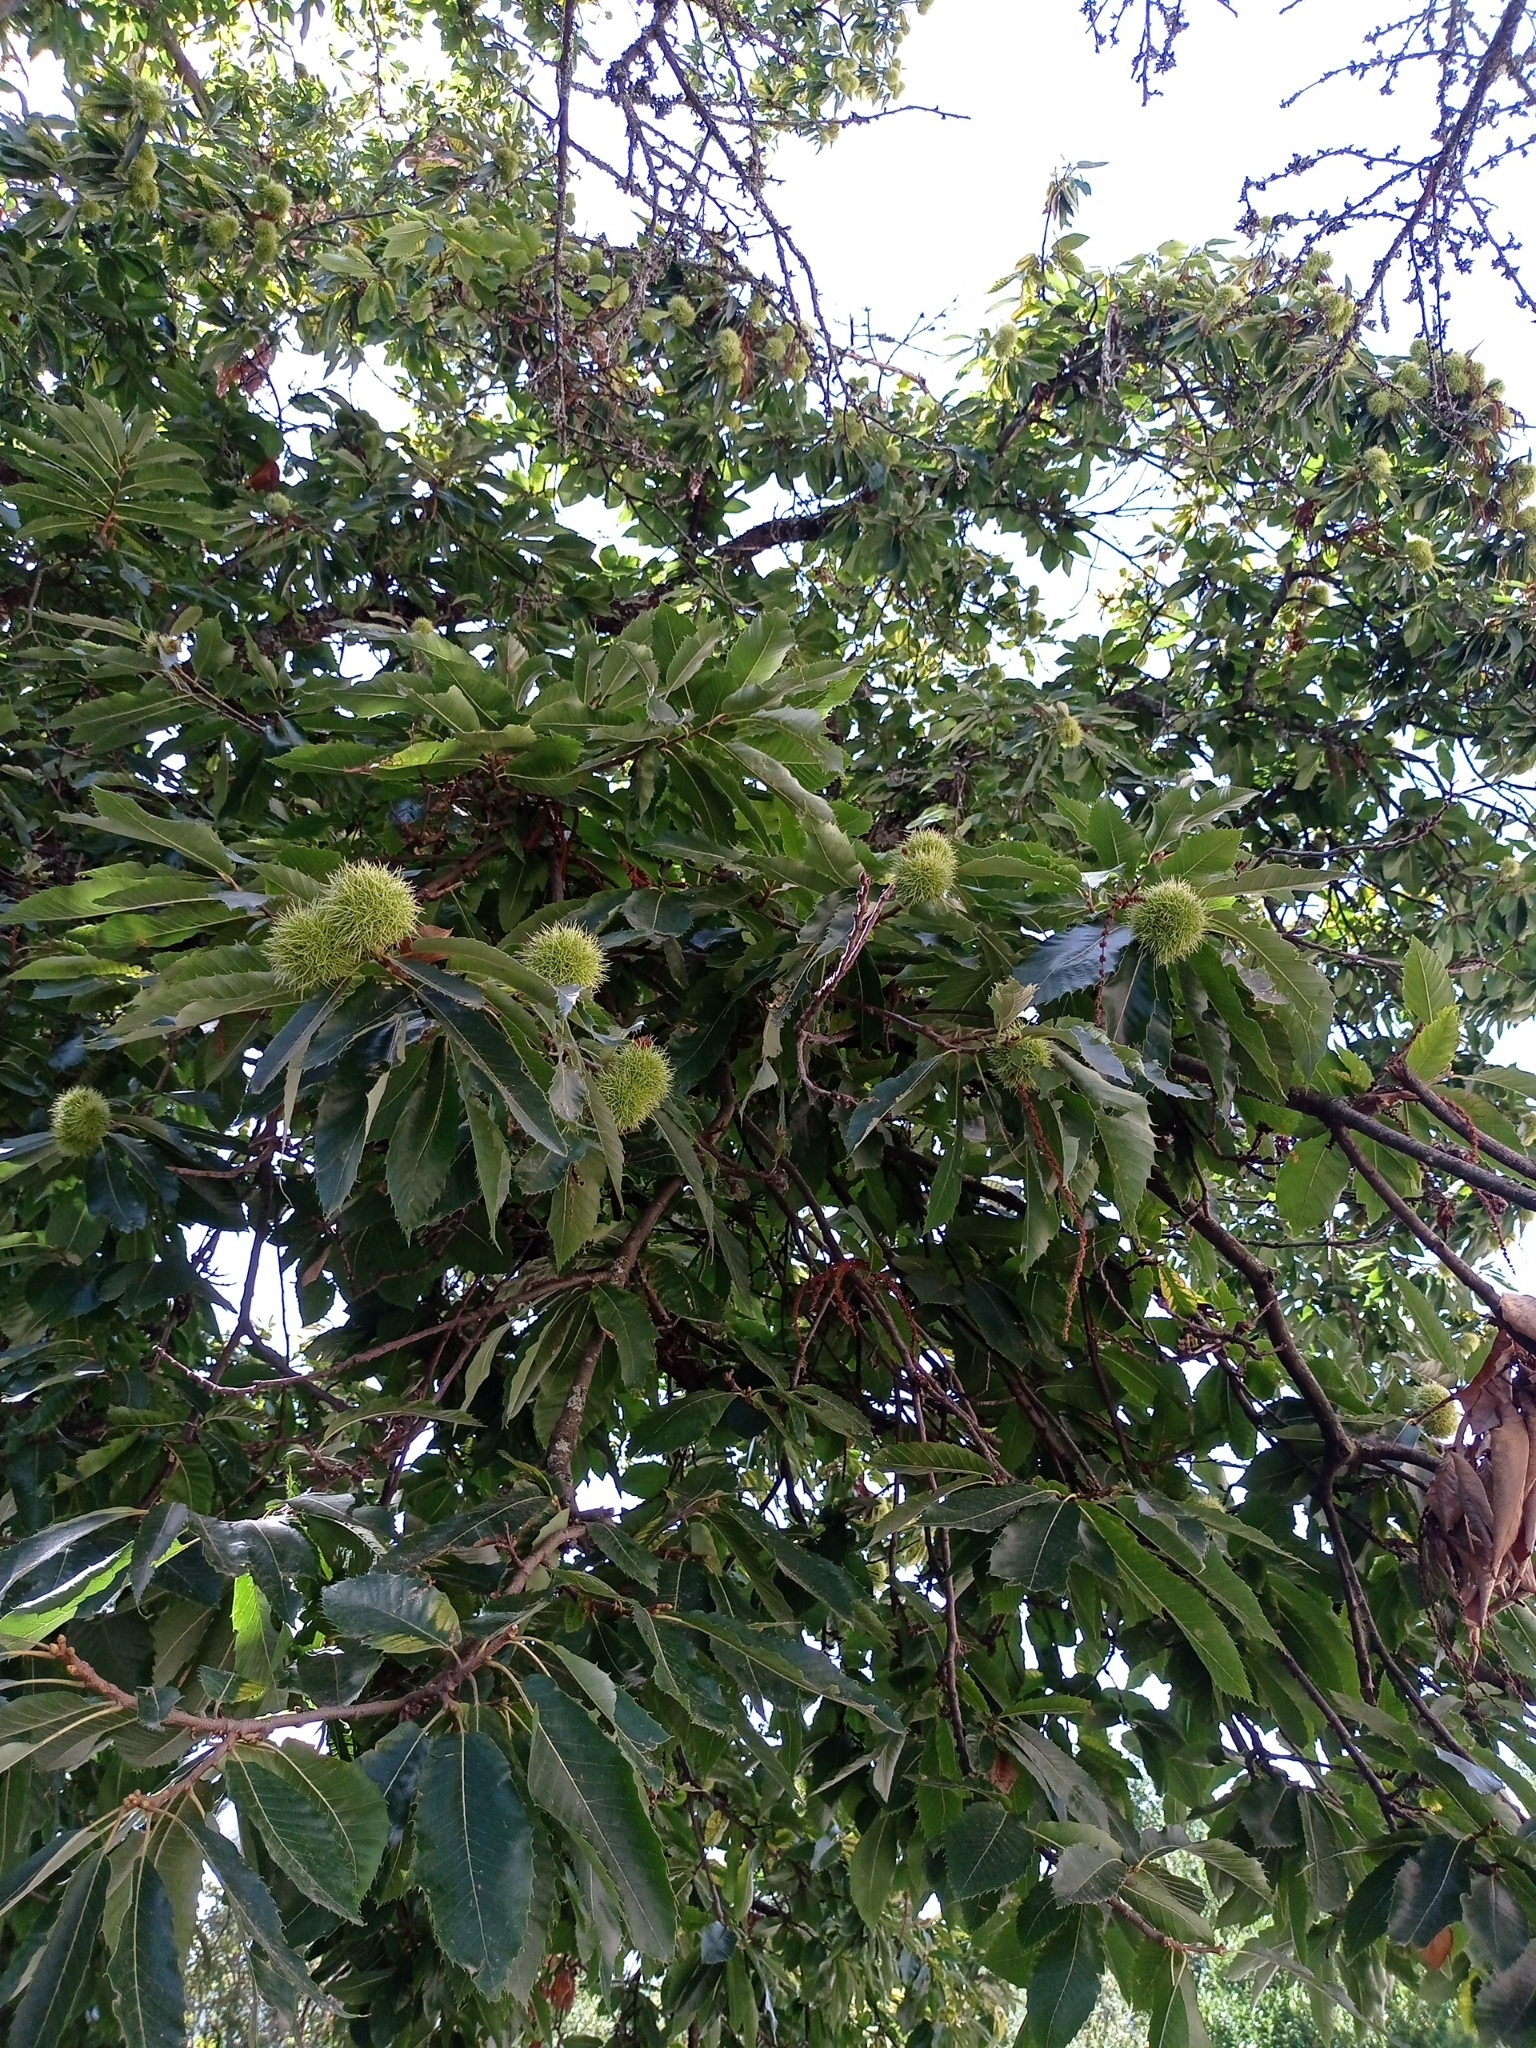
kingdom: Plantae
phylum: Tracheophyta
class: Magnoliopsida
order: Fagales
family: Fagaceae
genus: Castanea
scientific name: Castanea sativa
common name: Sweet chestnut
